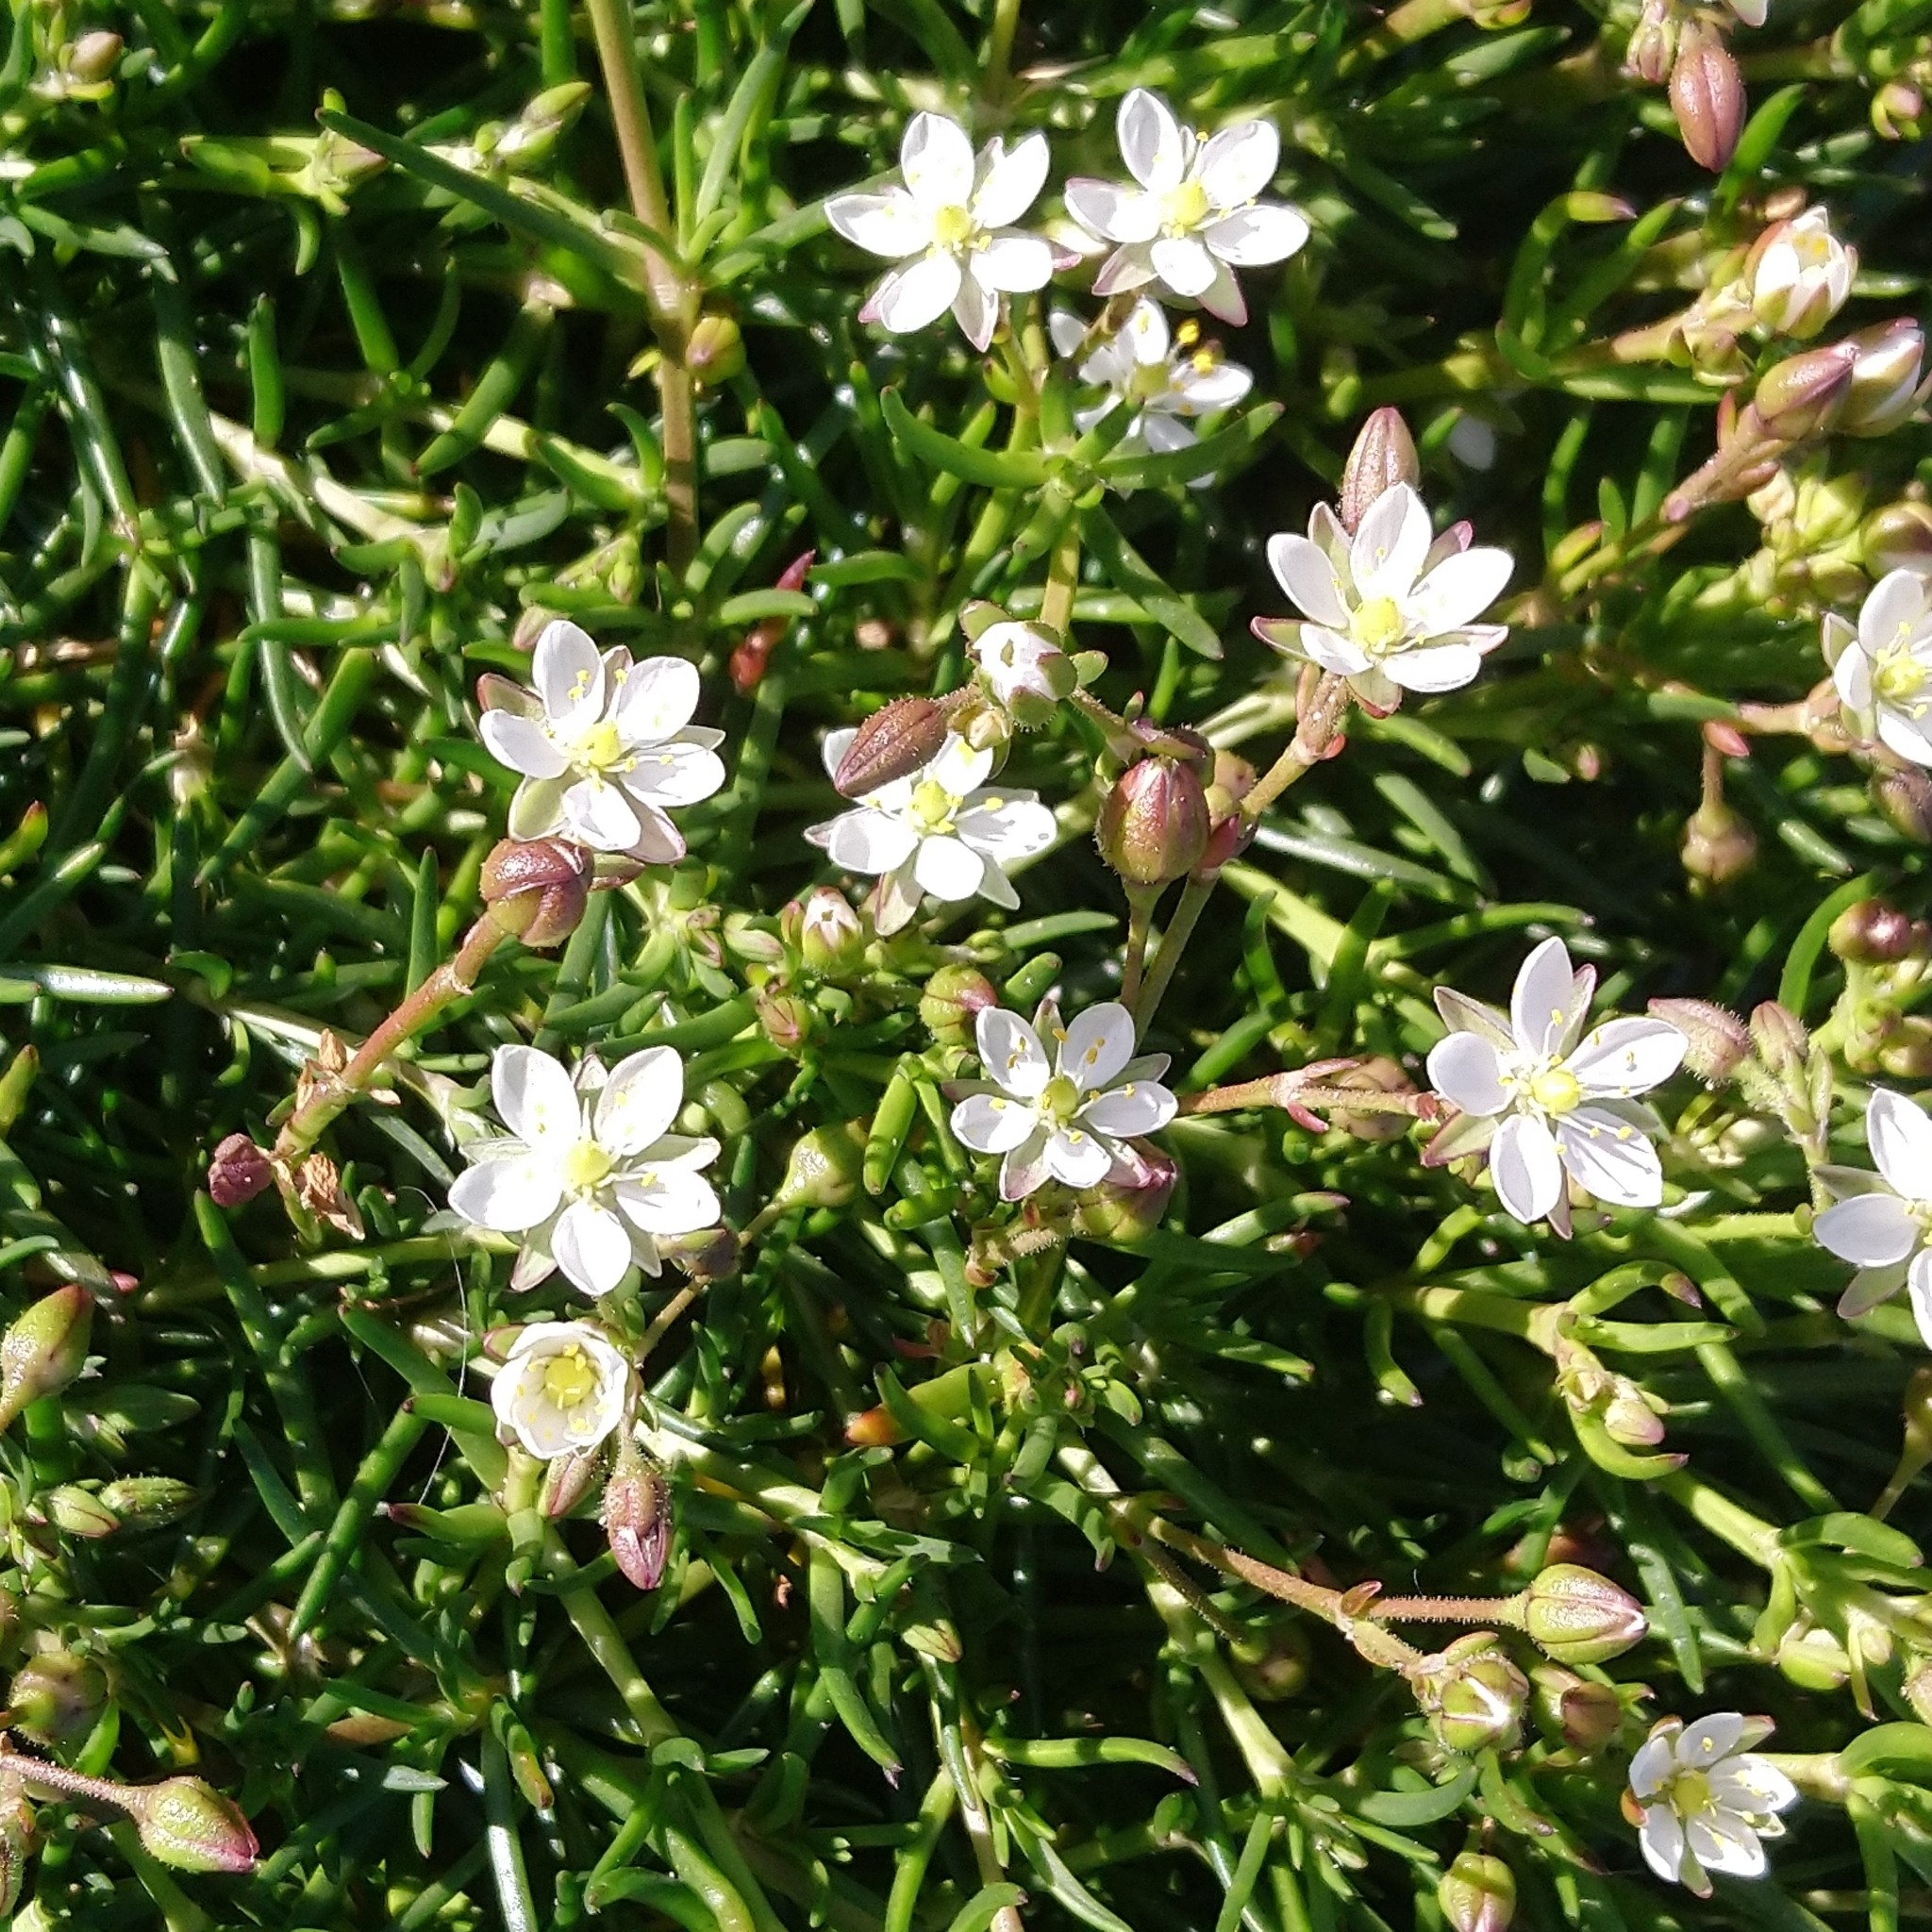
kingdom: Plantae
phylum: Tracheophyta
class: Magnoliopsida
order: Caryophyllales
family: Caryophyllaceae
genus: Spergularia
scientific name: Spergularia media
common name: Greater sea-spurrey
